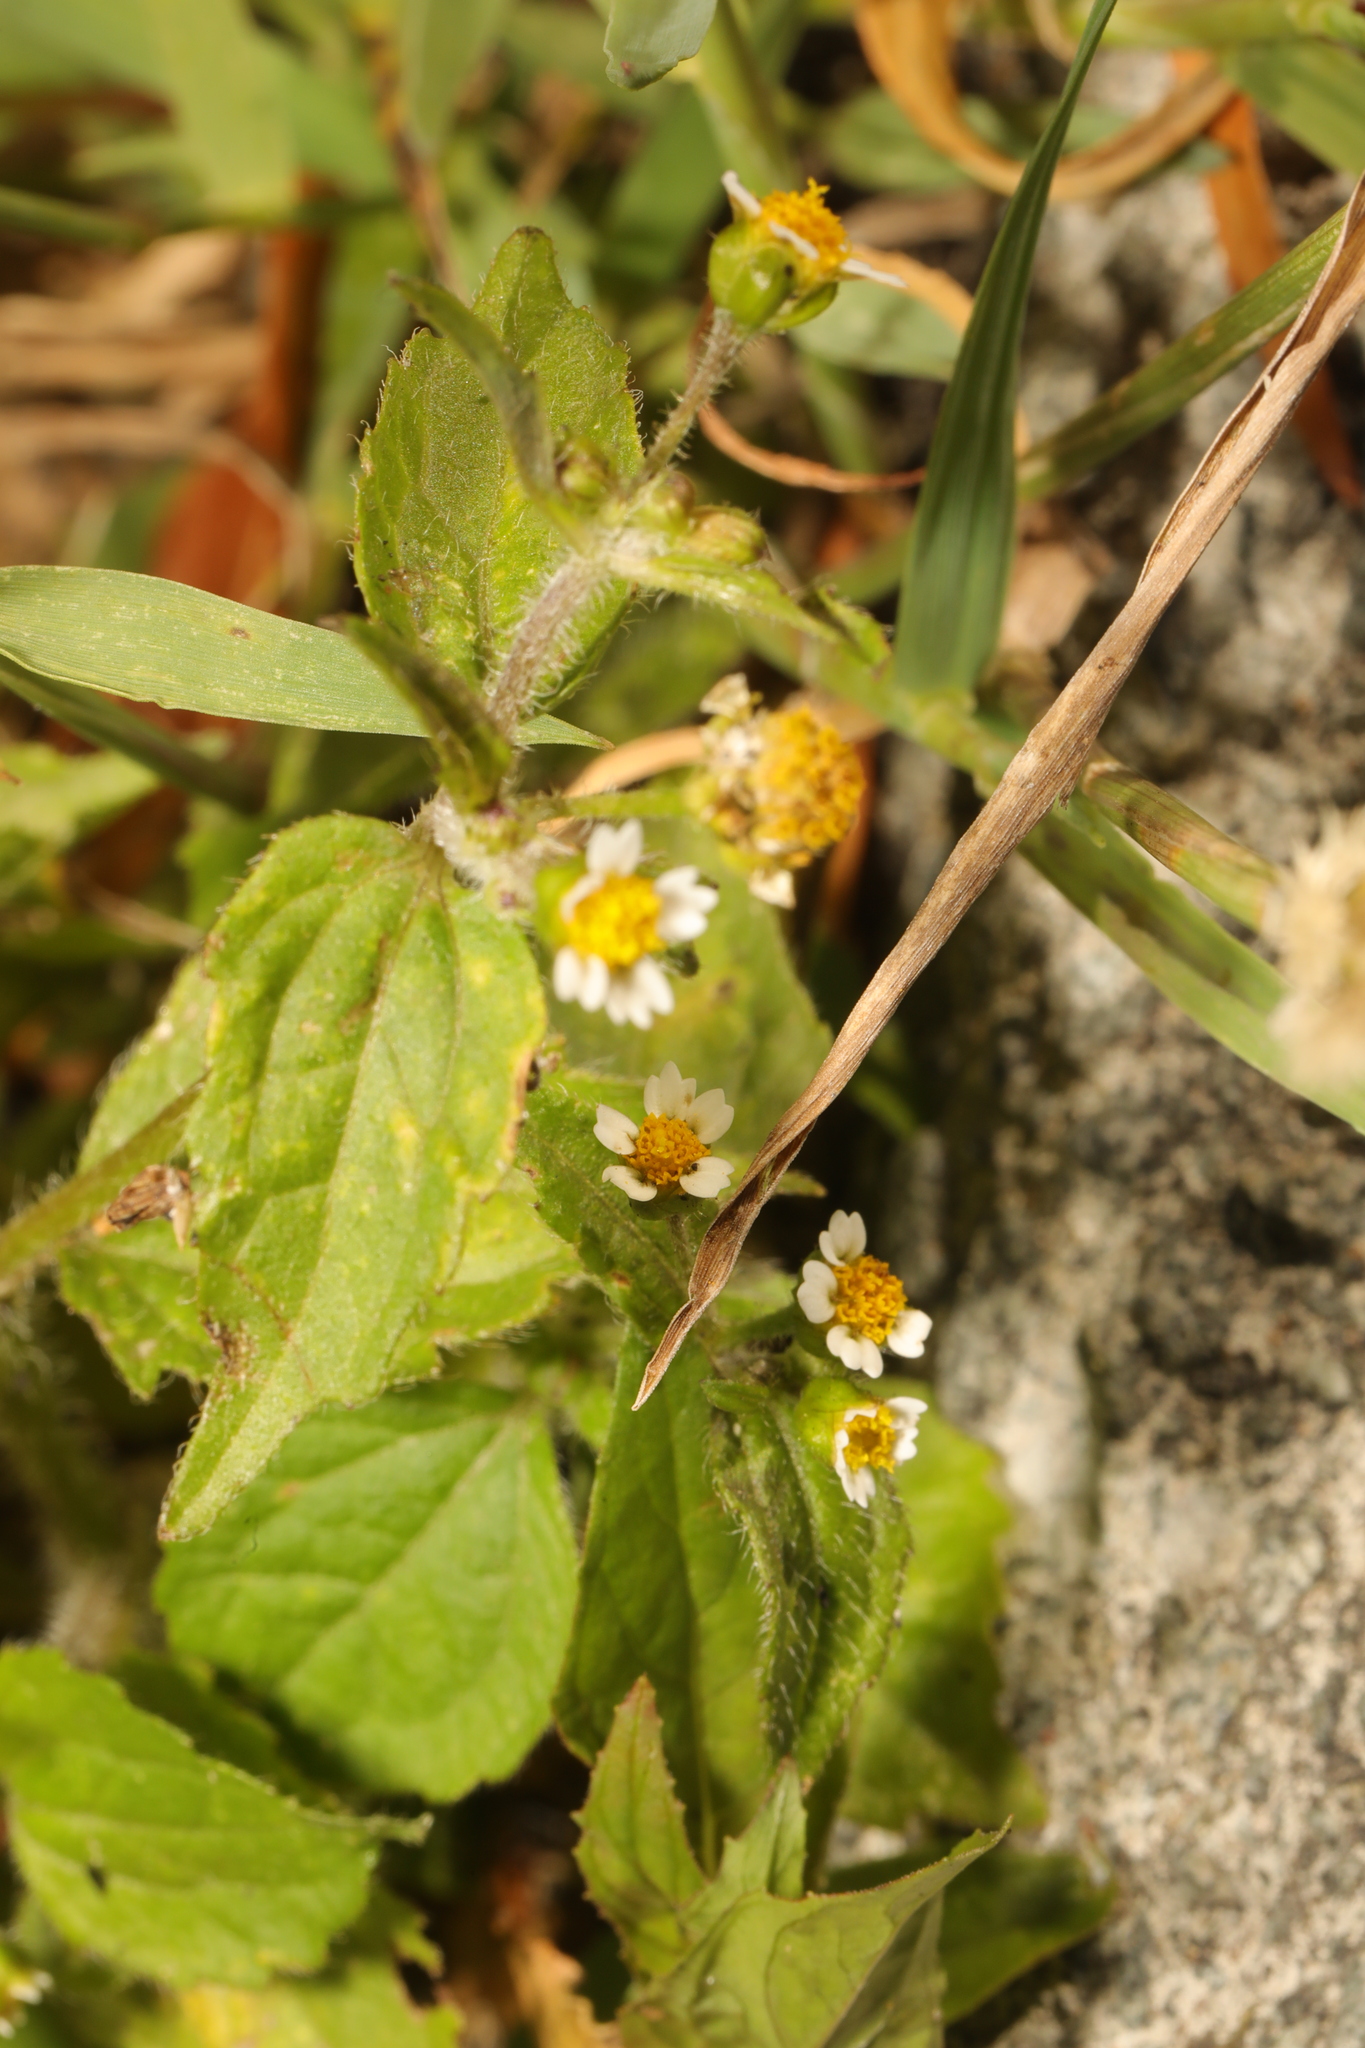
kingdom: Plantae
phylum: Tracheophyta
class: Magnoliopsida
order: Asterales
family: Asteraceae
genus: Galinsoga
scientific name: Galinsoga quadriradiata
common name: Shaggy soldier
